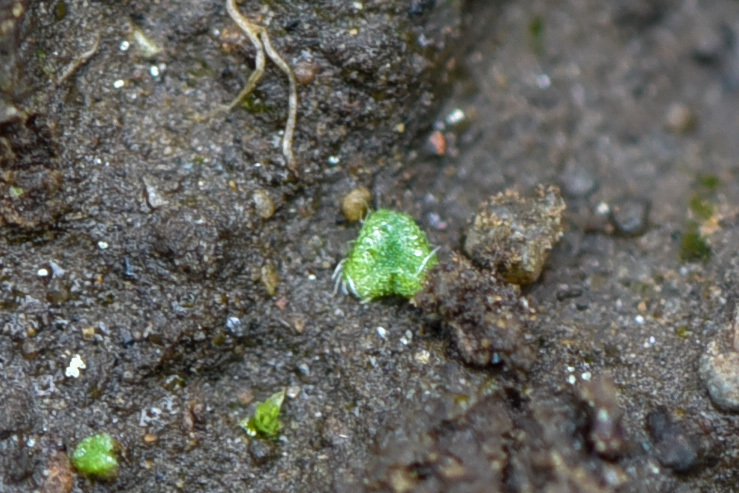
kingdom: Plantae
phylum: Marchantiophyta
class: Marchantiopsida
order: Marchantiales
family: Ricciaceae
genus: Riccia
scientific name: Riccia trichocarpa
